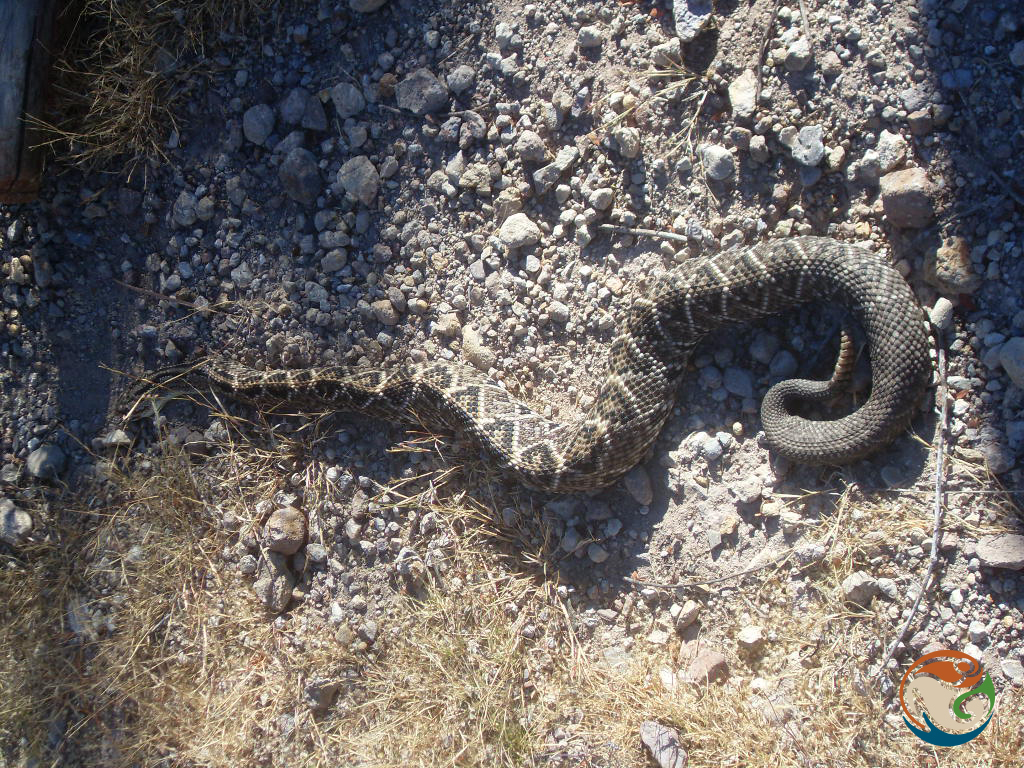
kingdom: Animalia
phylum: Chordata
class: Squamata
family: Viperidae
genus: Crotalus
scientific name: Crotalus culminatus
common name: Northwestern neotropical rattlesnake
